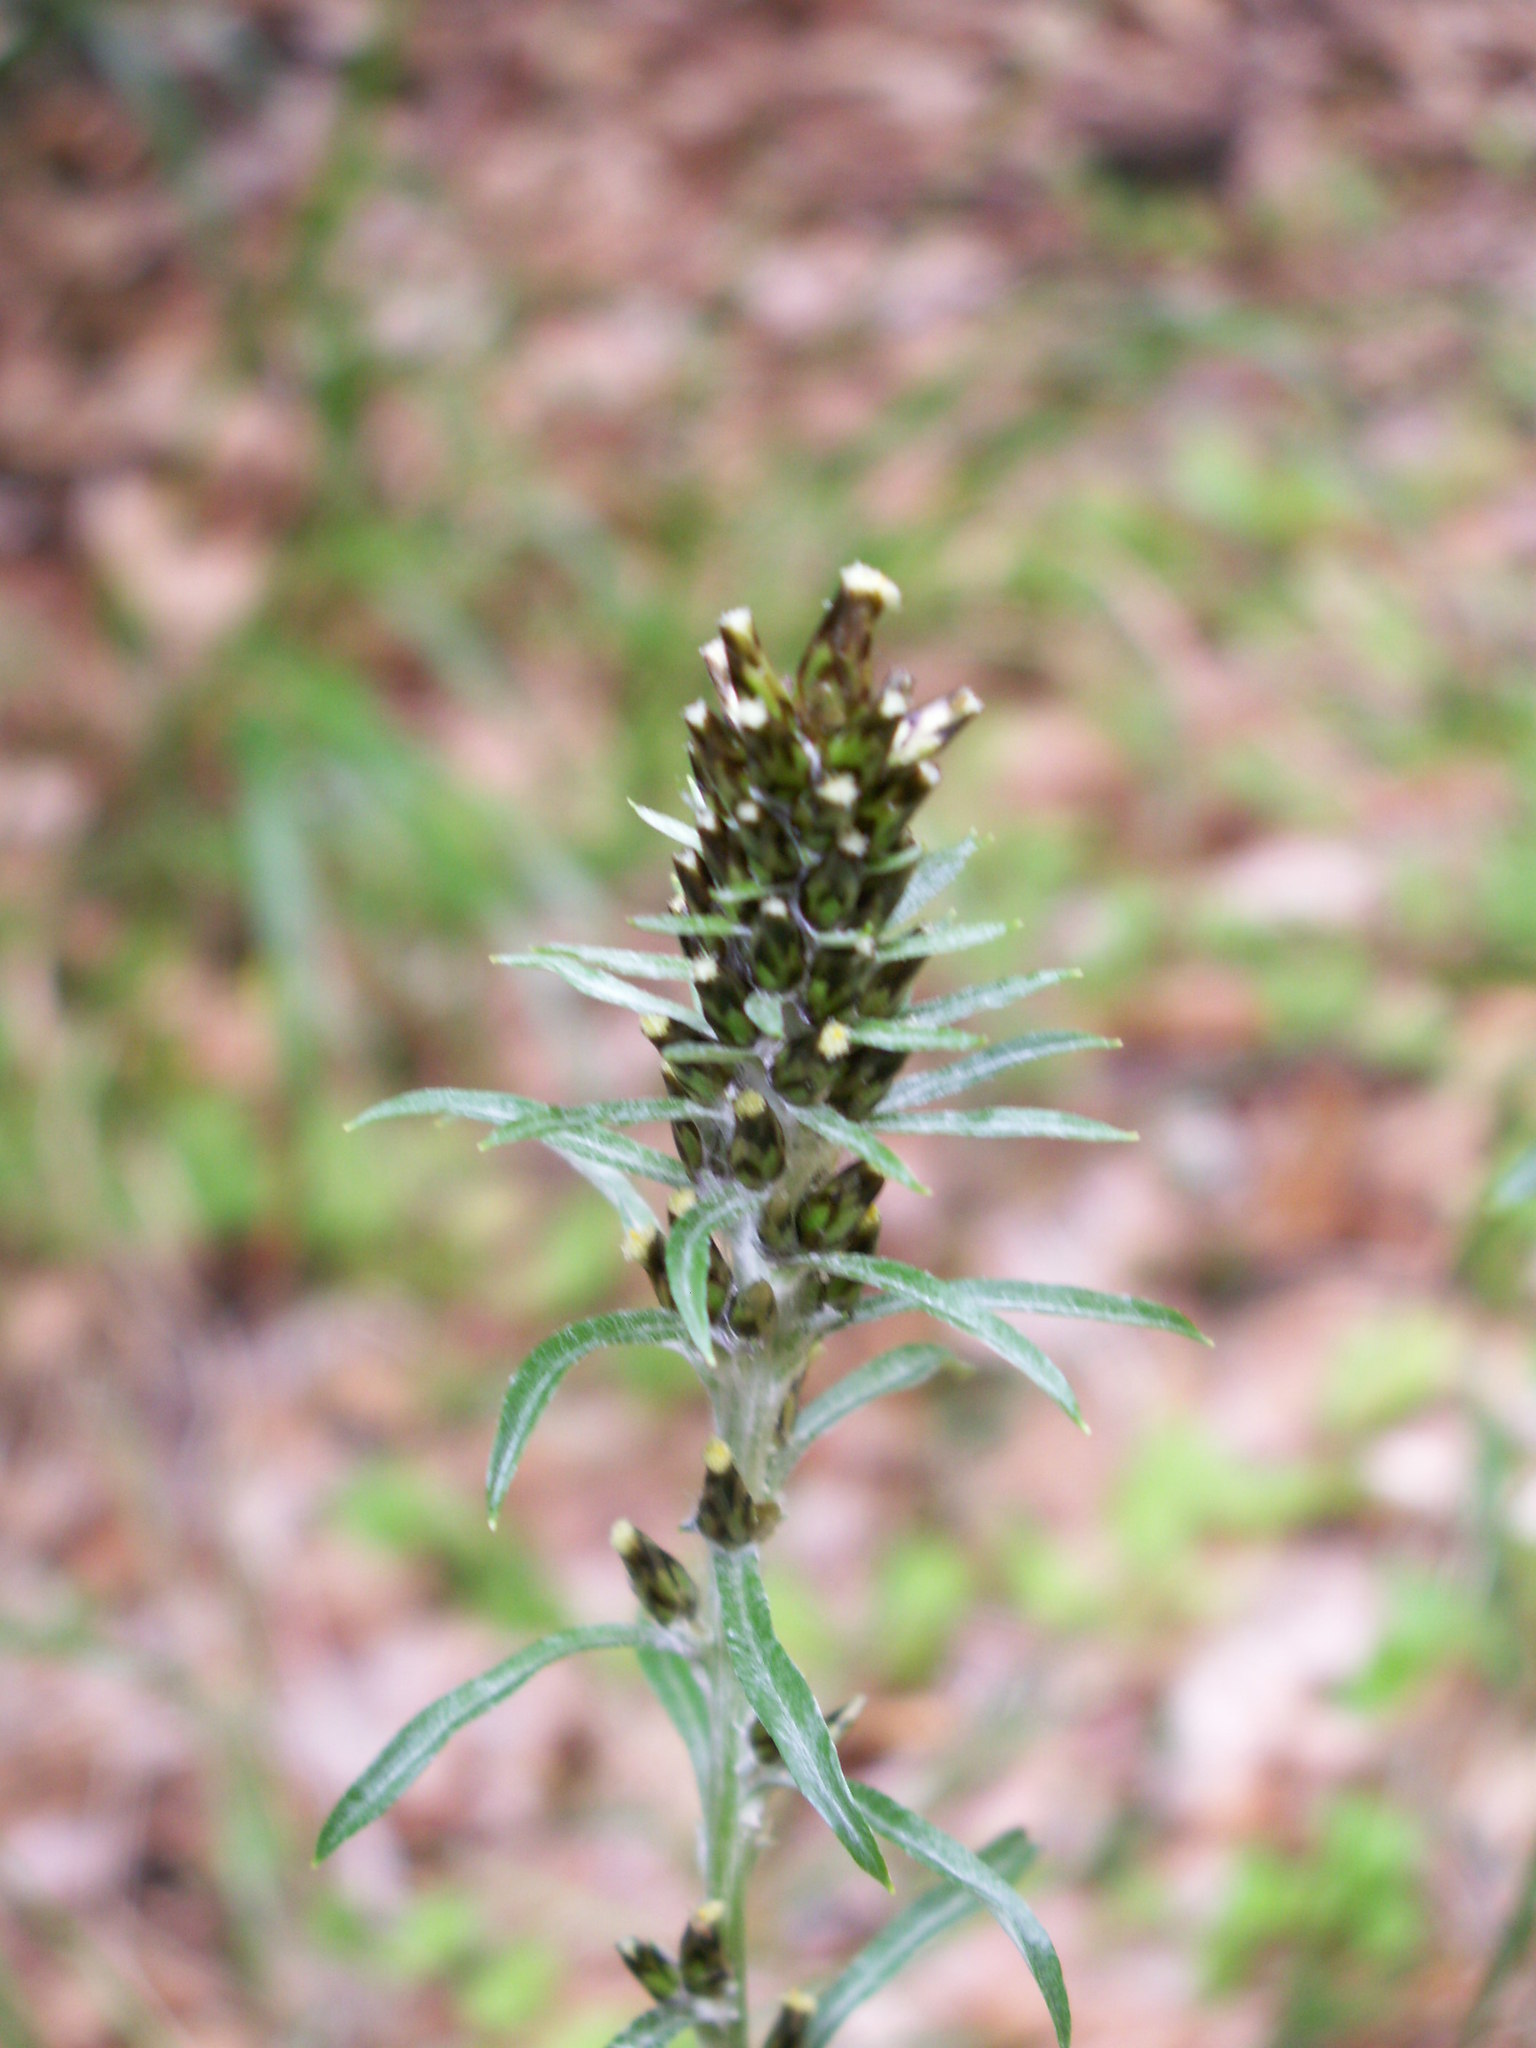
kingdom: Plantae
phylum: Tracheophyta
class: Magnoliopsida
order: Asterales
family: Asteraceae
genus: Omalotheca
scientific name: Omalotheca sylvatica
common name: Heath cudweed
